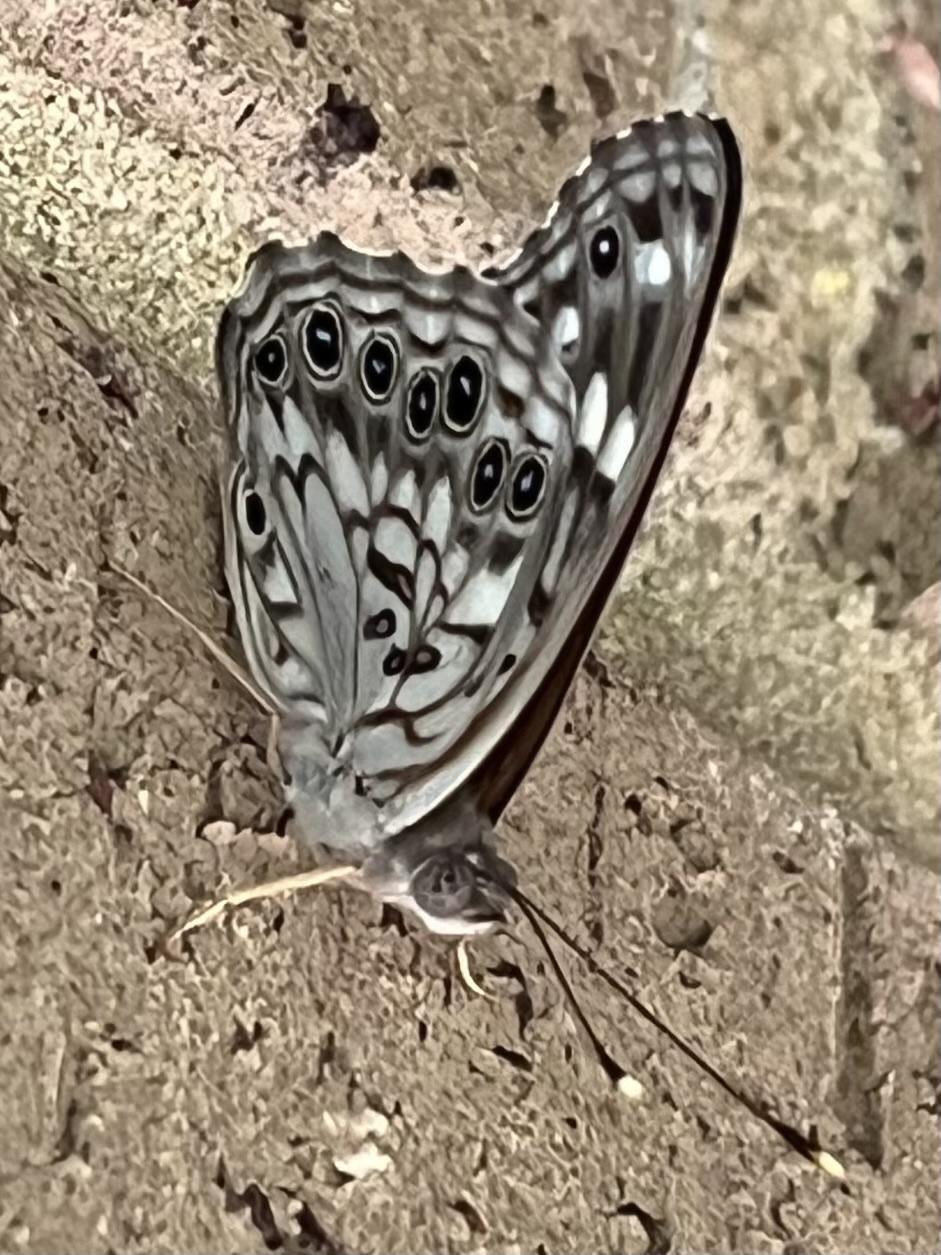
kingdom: Animalia
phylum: Arthropoda
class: Insecta
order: Lepidoptera
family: Nymphalidae
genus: Asterocampa
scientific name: Asterocampa celtis
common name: Hackberry emperor
